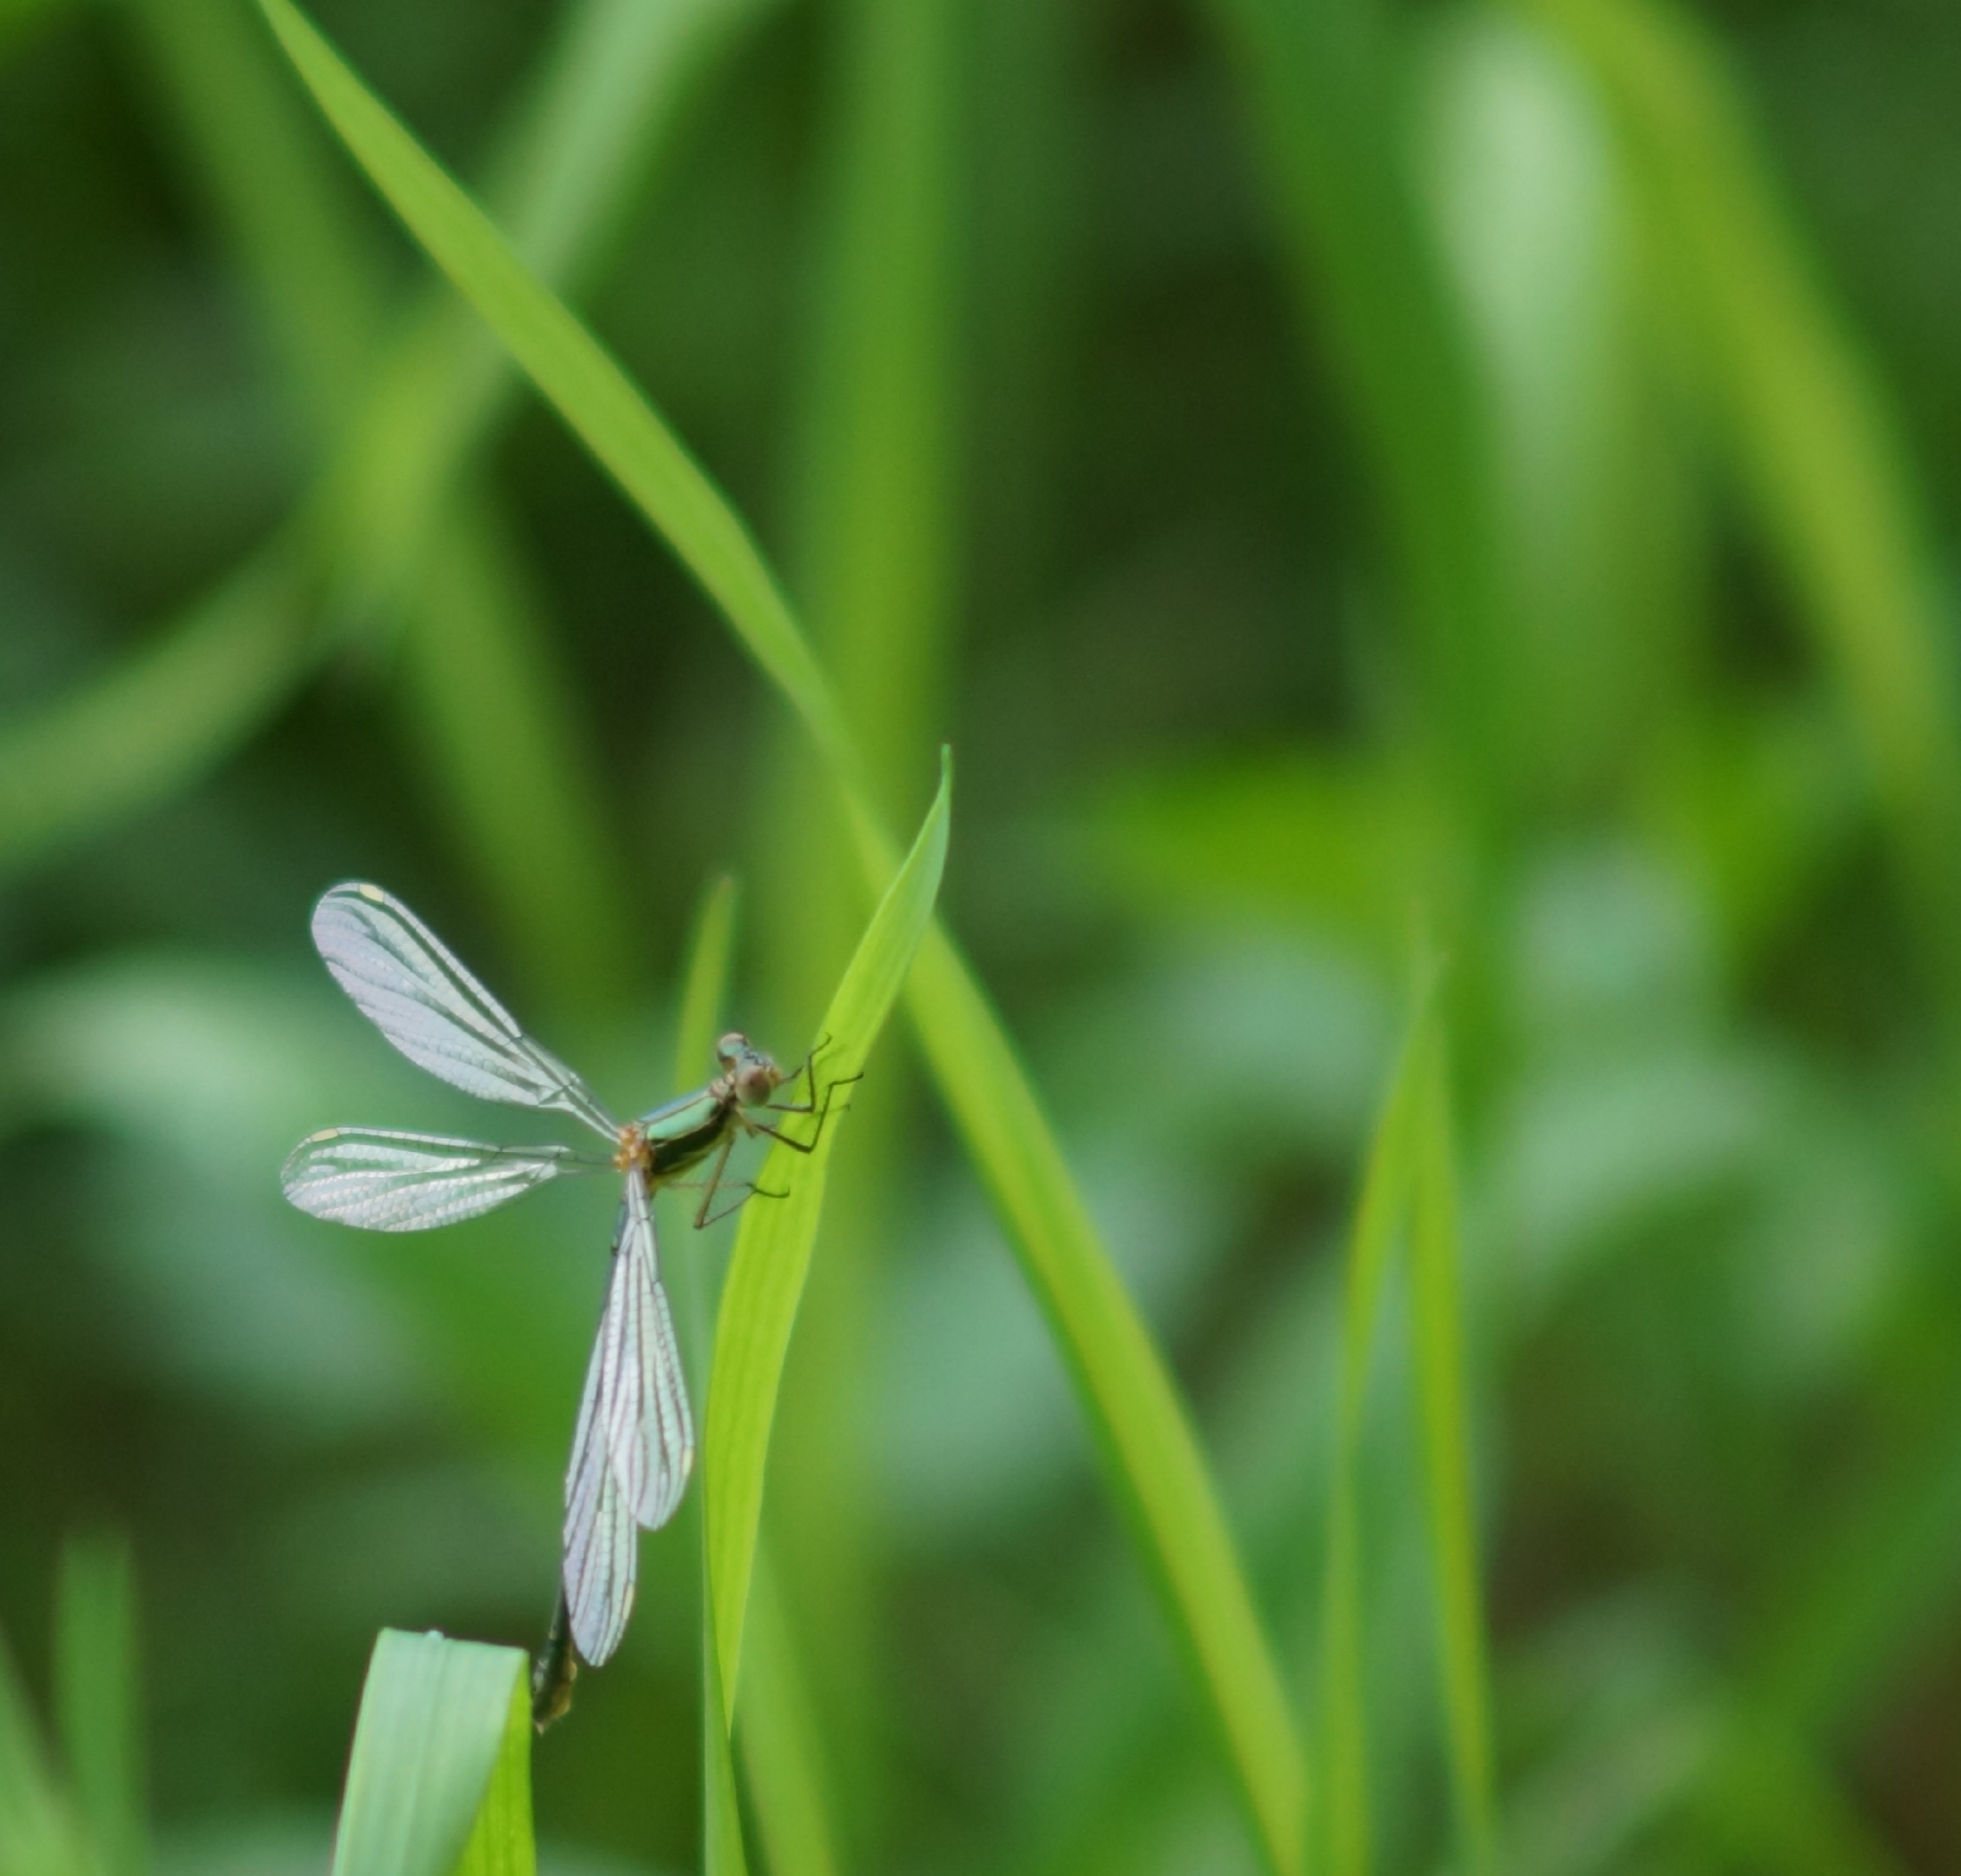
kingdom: Animalia
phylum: Arthropoda
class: Insecta
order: Odonata
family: Lestidae
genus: Chalcolestes
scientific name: Chalcolestes viridis
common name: Green emerald damselfly
